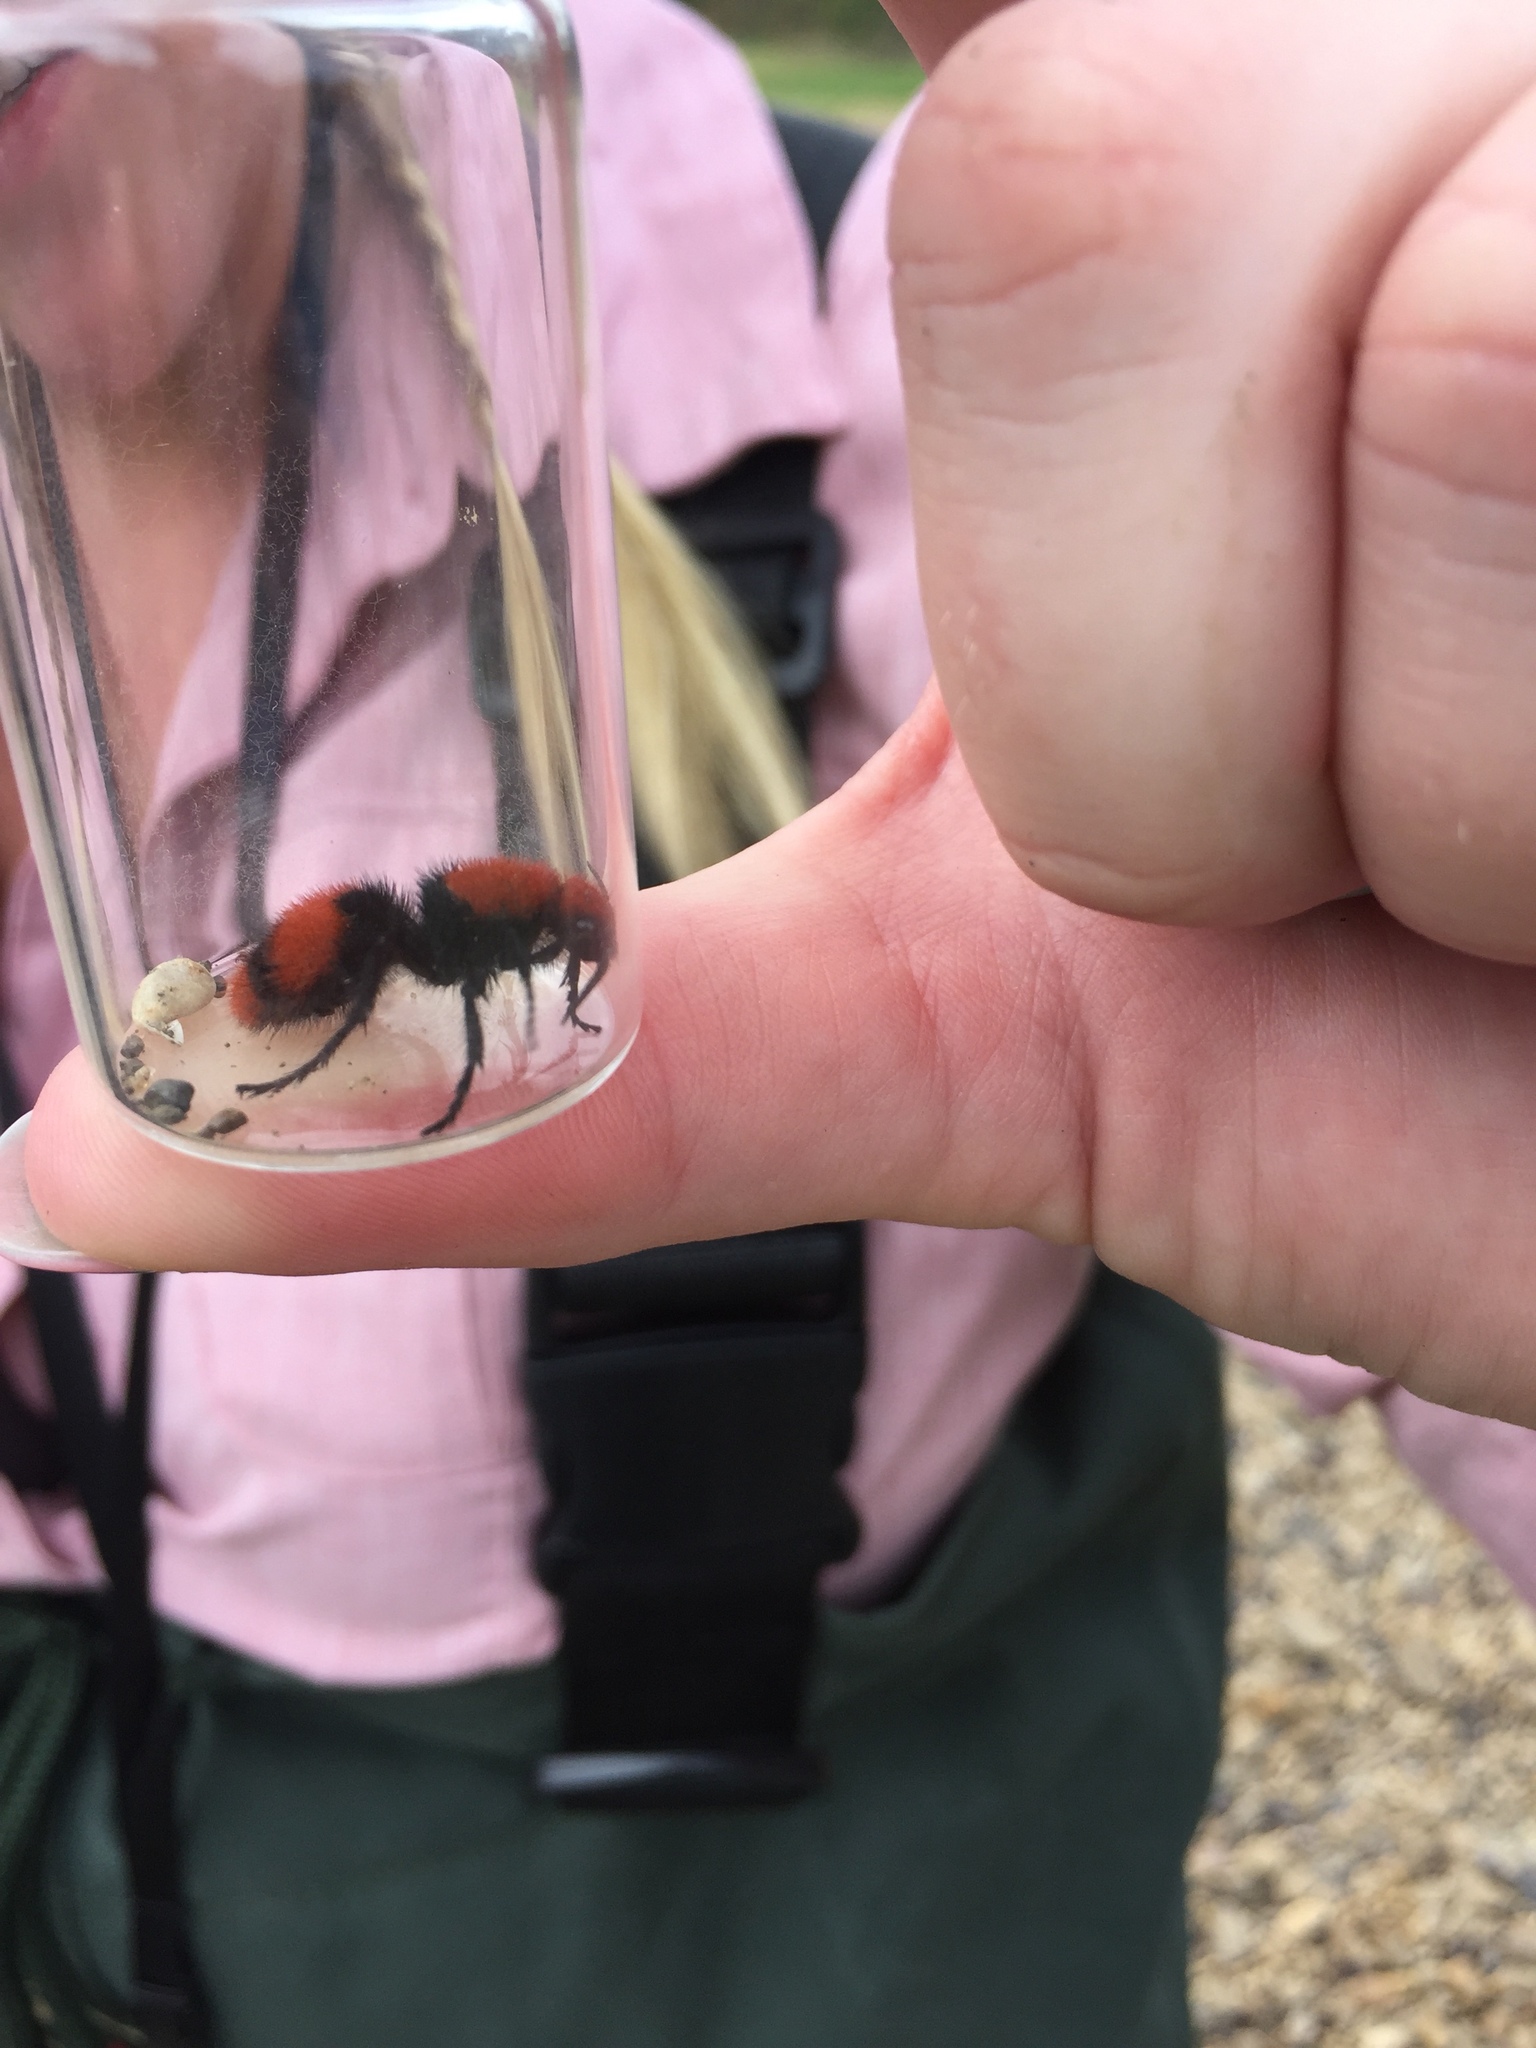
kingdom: Animalia
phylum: Arthropoda
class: Insecta
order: Hymenoptera
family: Mutillidae
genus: Dasymutilla
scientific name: Dasymutilla occidentalis
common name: Common eastern velvet ant
